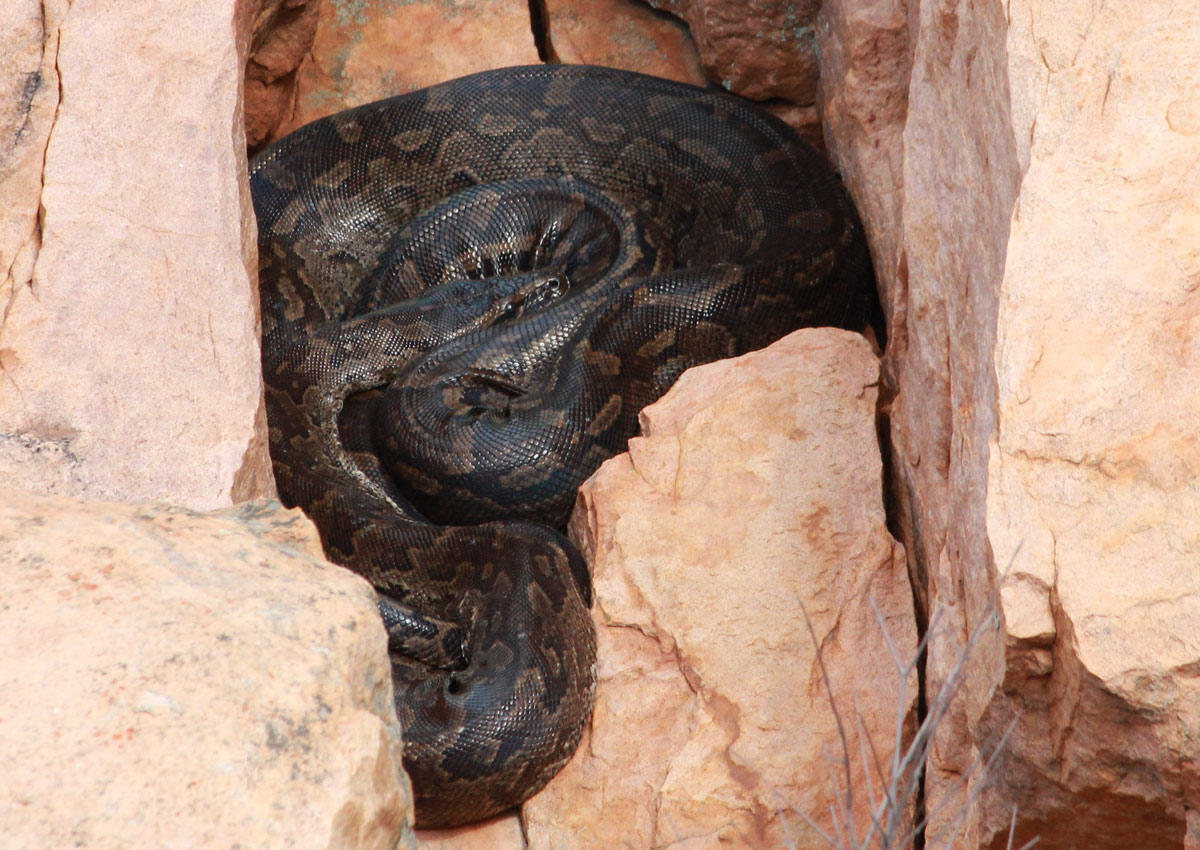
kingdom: Animalia
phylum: Chordata
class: Squamata
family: Pythonidae
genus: Python
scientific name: Python natalensis
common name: Southern african rock python
